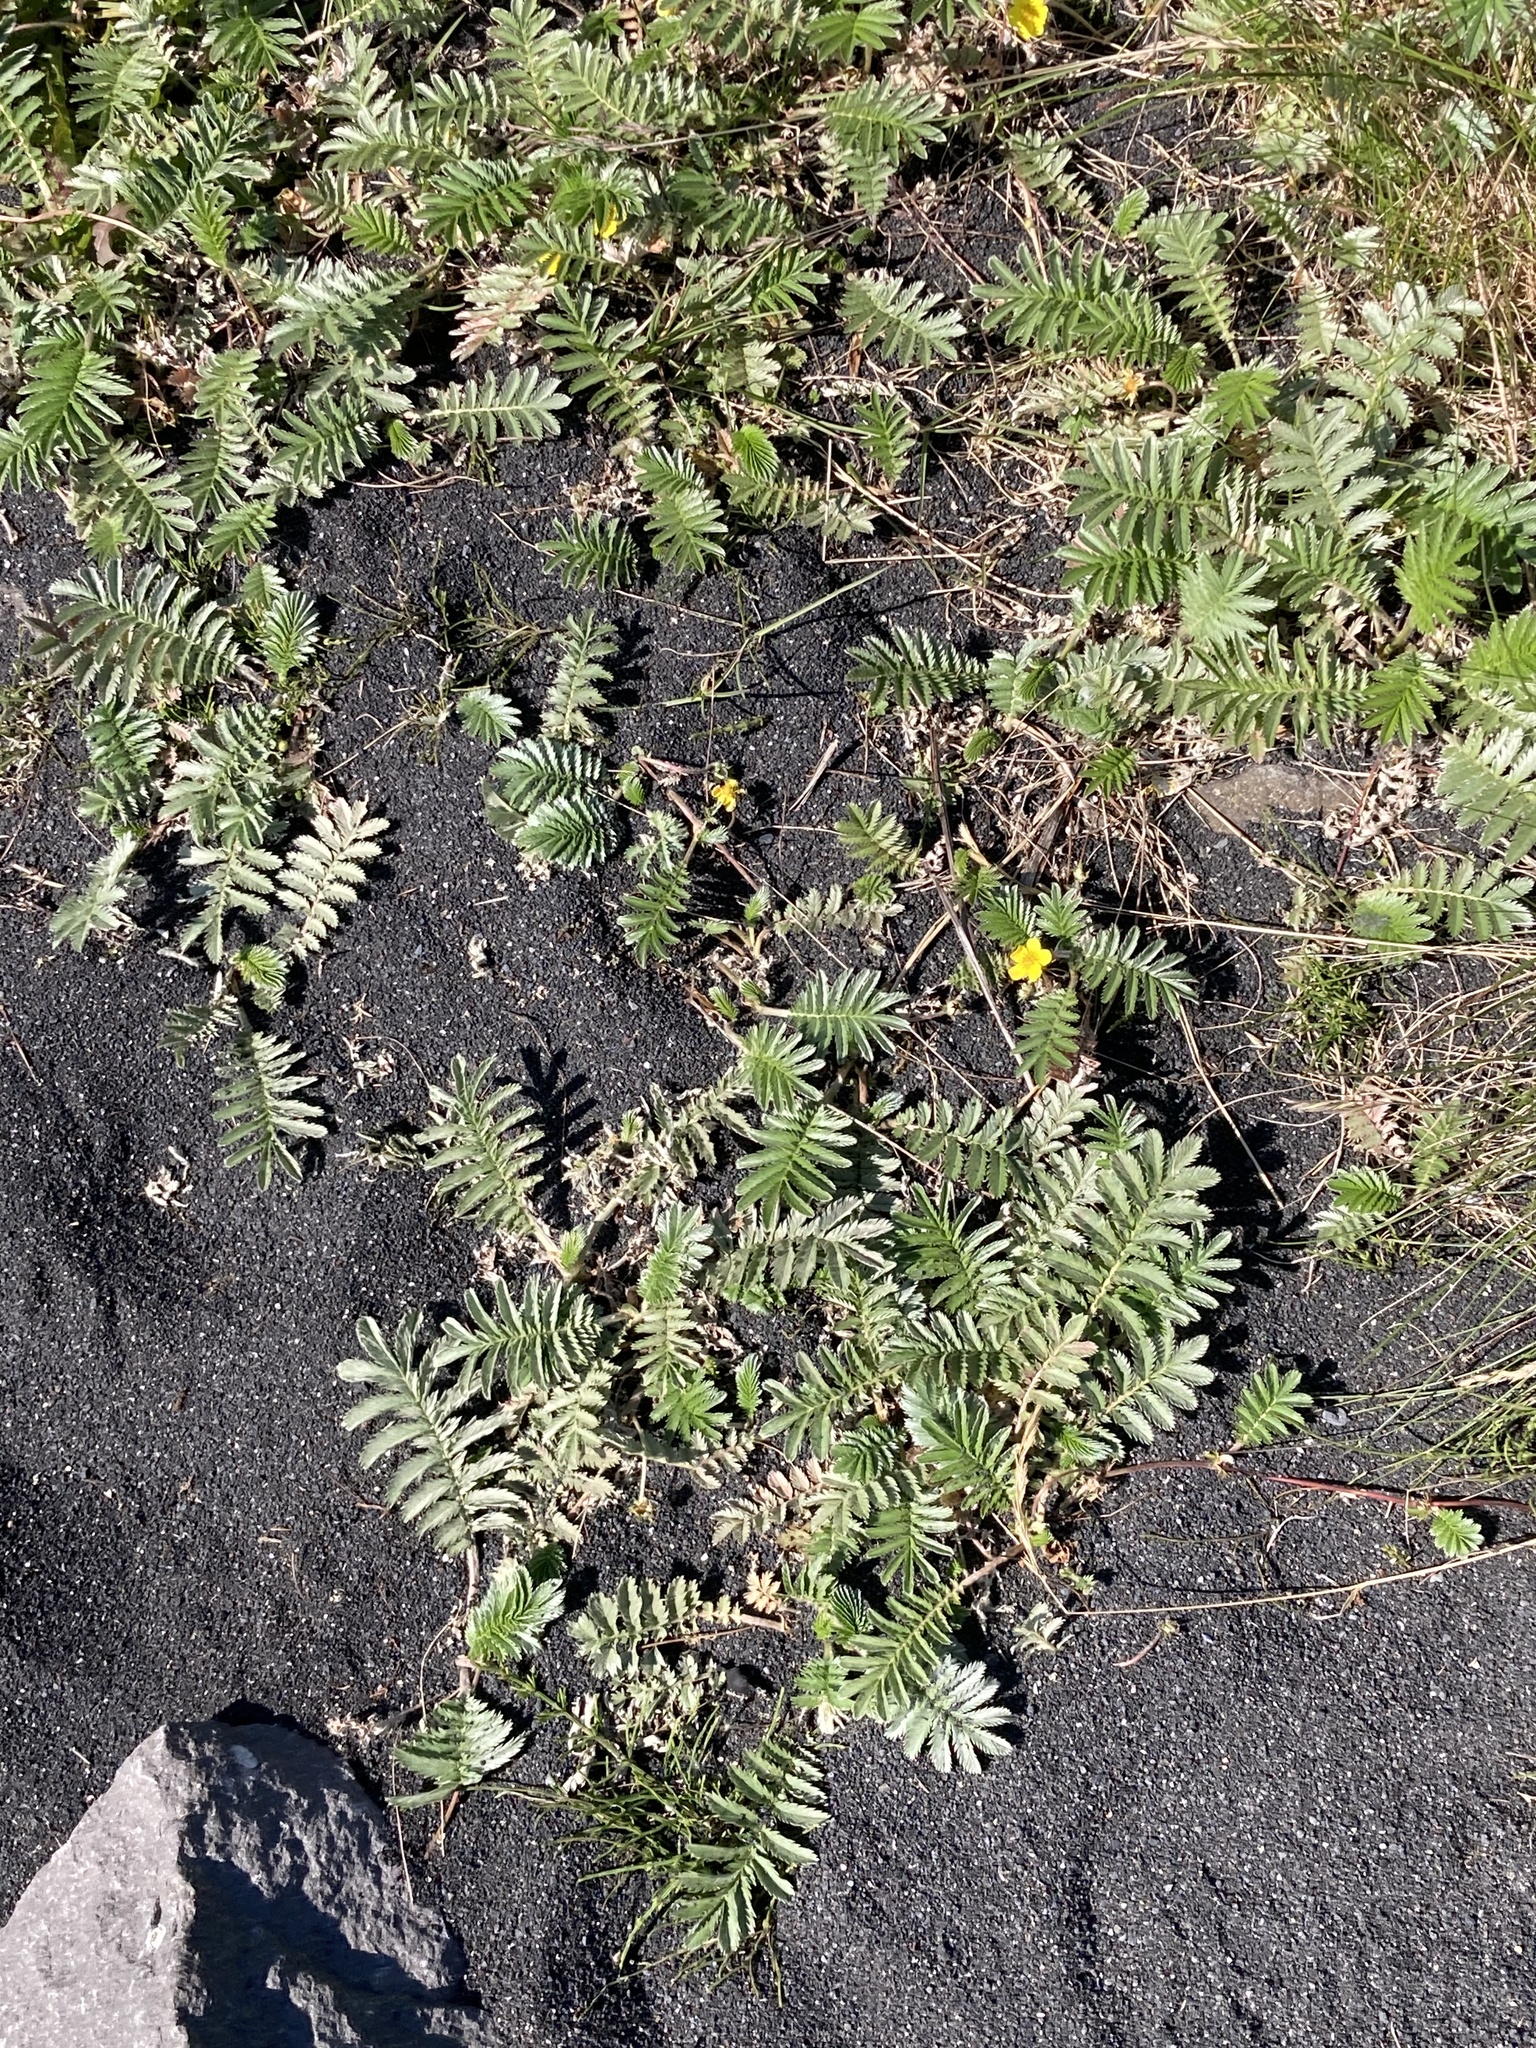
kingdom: Plantae
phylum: Tracheophyta
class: Magnoliopsida
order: Rosales
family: Rosaceae
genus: Argentina
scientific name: Argentina anserina
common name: Common silverweed
